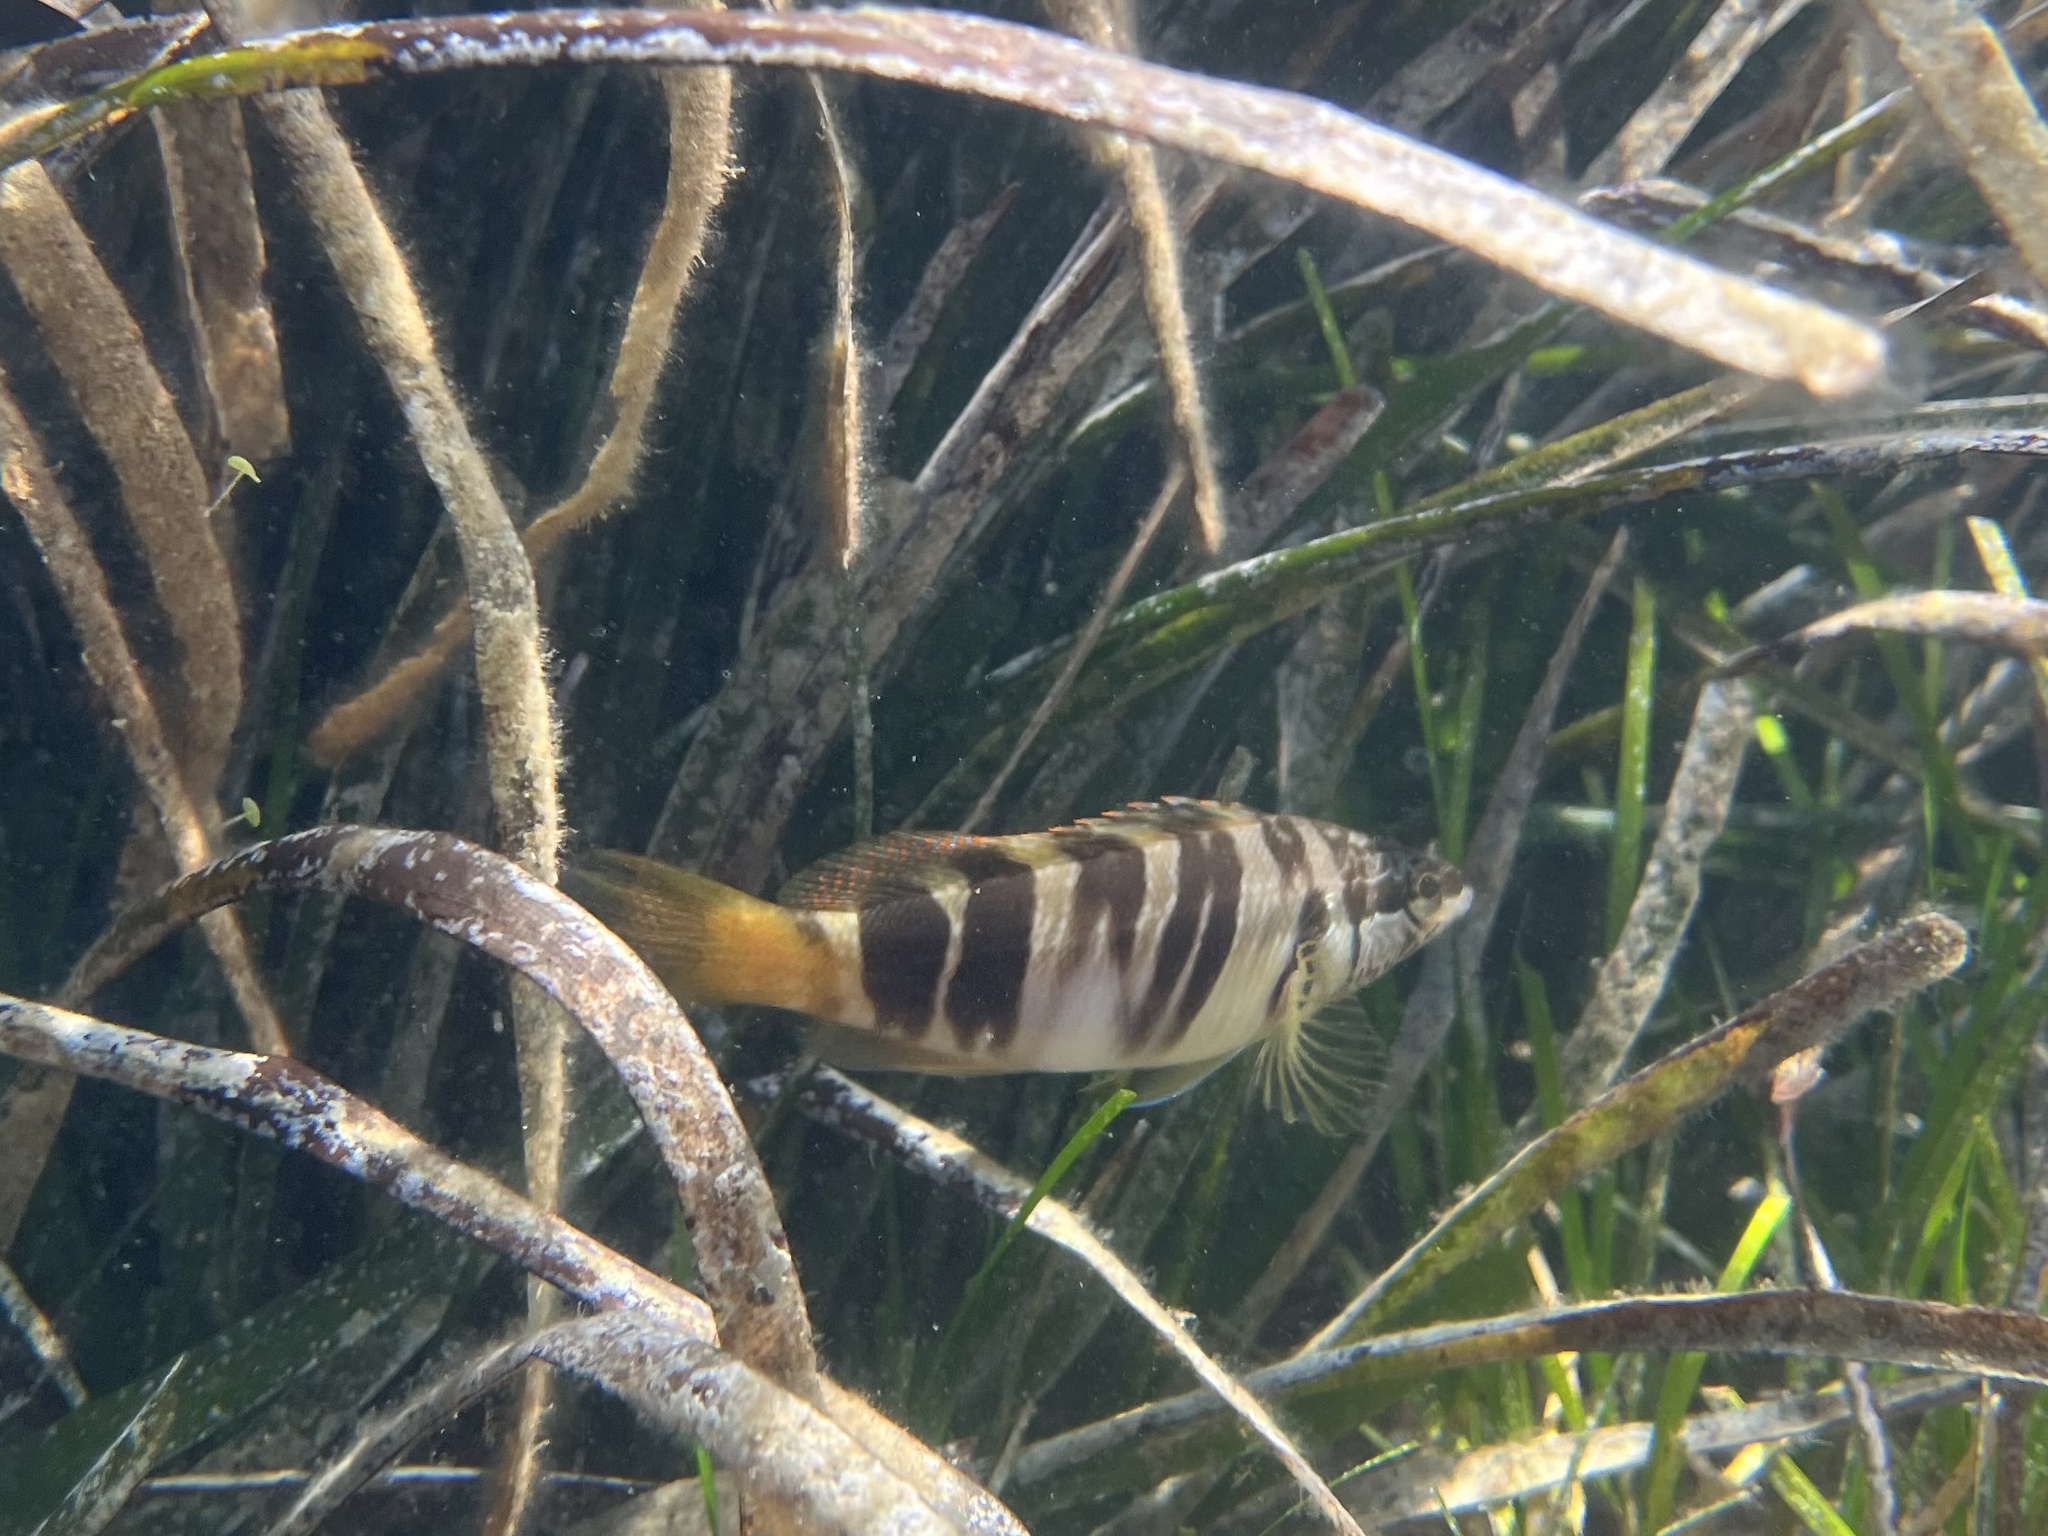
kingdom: Animalia
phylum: Chordata
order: Perciformes
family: Serranidae
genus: Serranus
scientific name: Serranus scriba
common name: Painted comber
